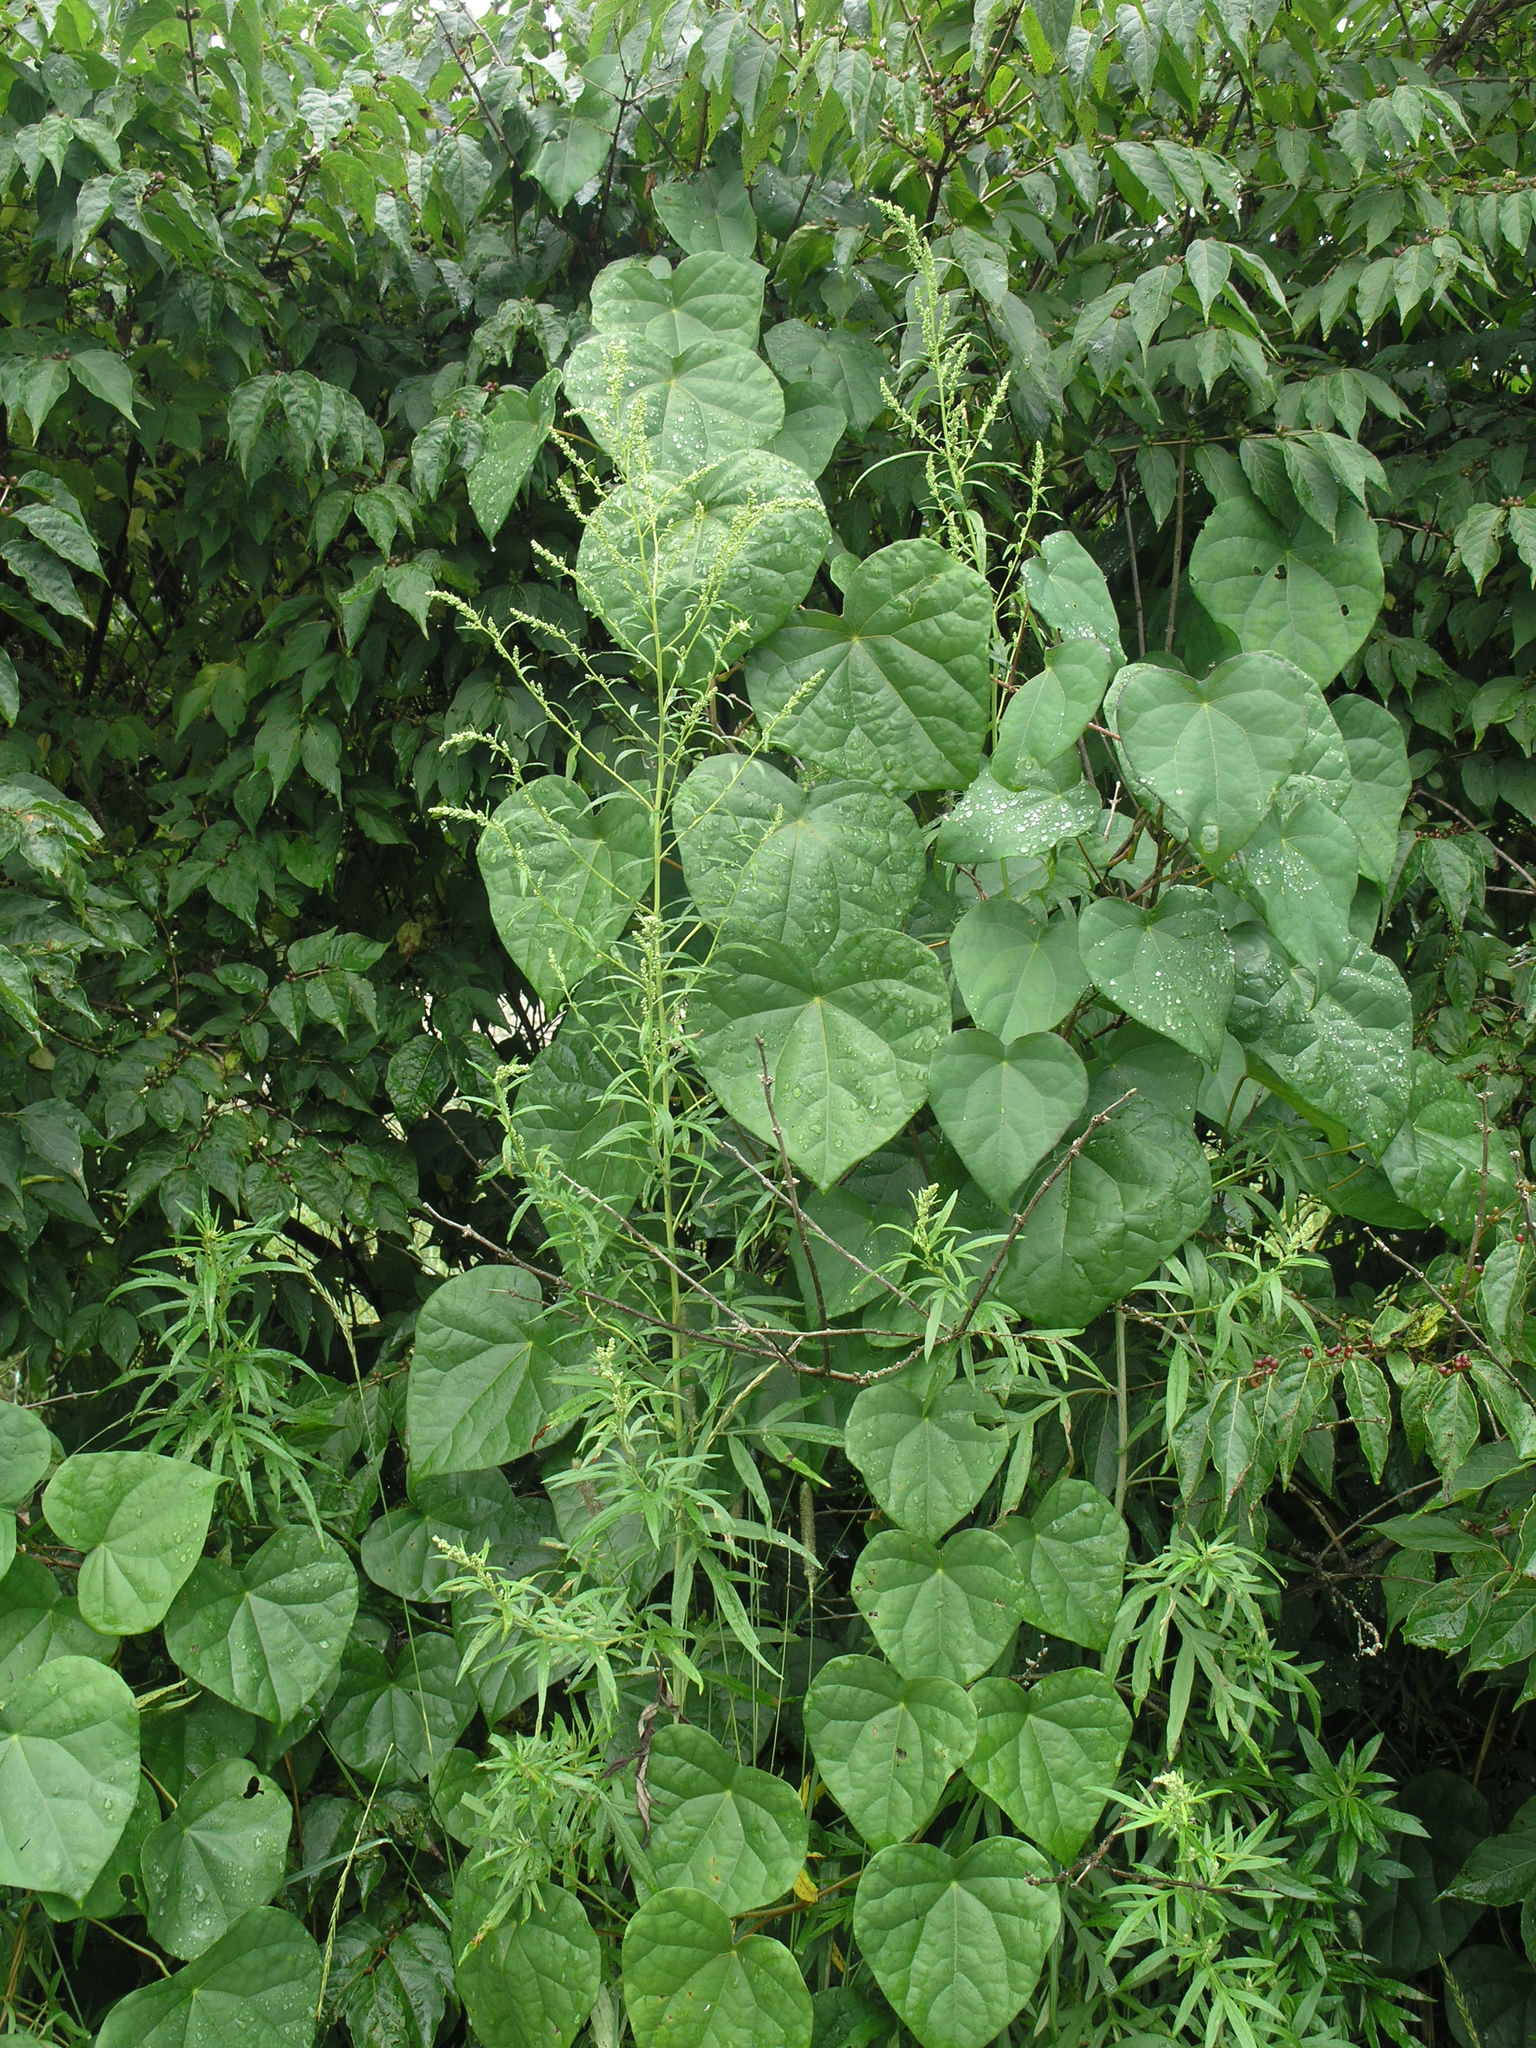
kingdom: Plantae
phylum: Tracheophyta
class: Magnoliopsida
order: Ranunculales
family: Menispermaceae
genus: Menispermum
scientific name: Menispermum dauricum
